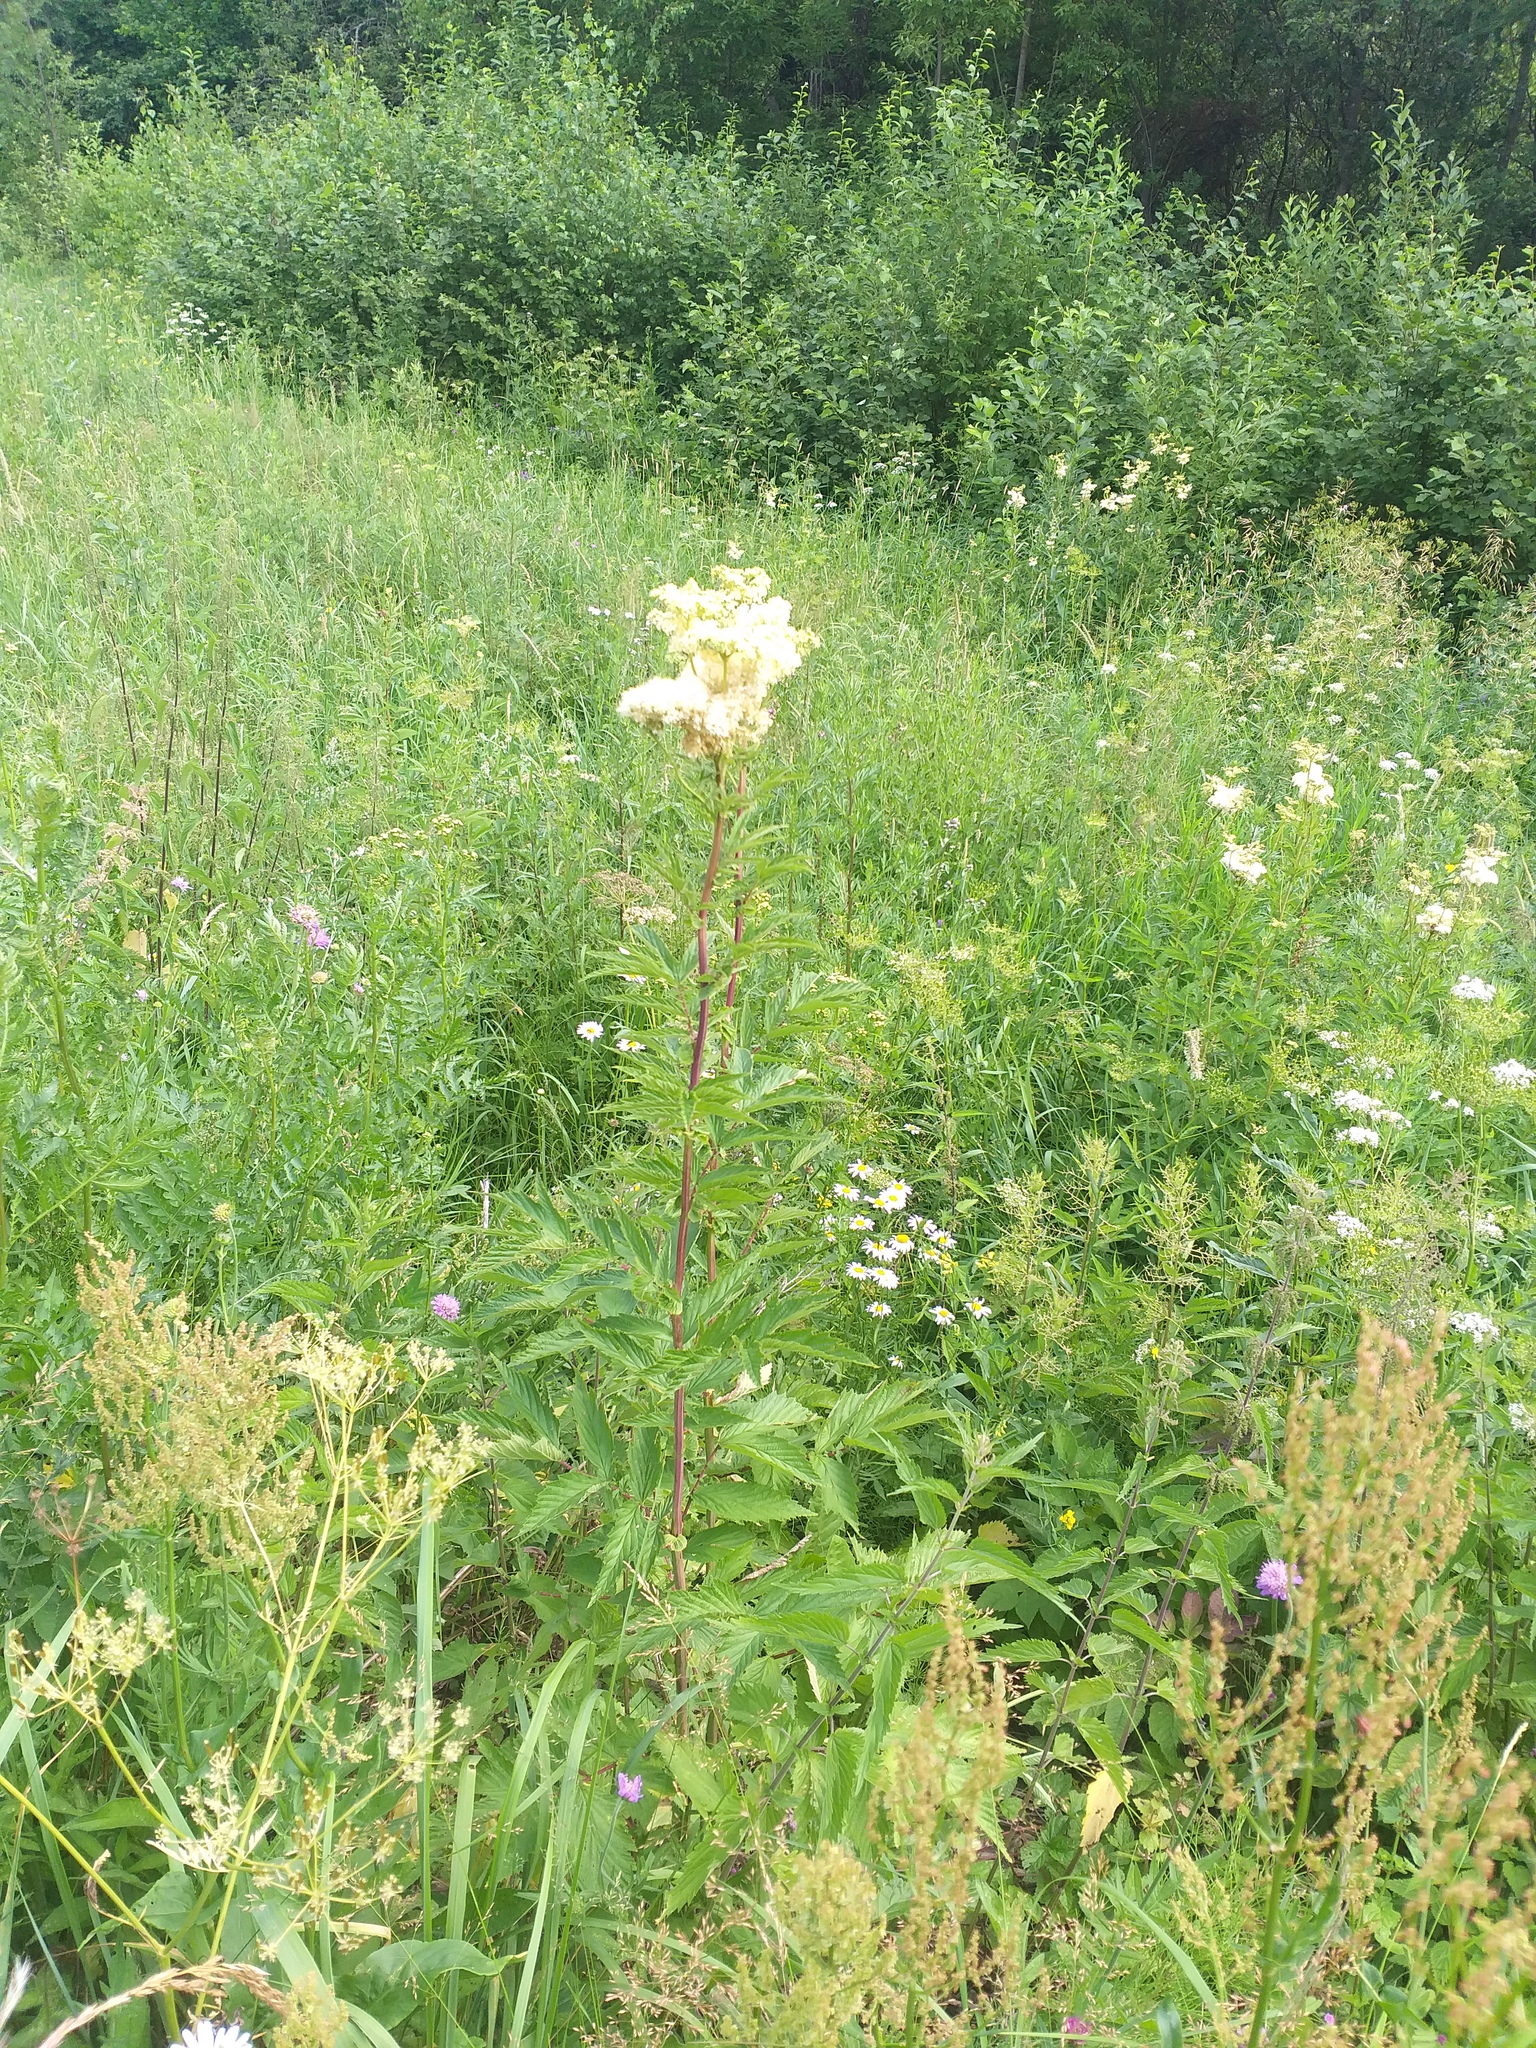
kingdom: Plantae
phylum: Tracheophyta
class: Magnoliopsida
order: Rosales
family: Rosaceae
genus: Filipendula
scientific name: Filipendula ulmaria
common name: Meadowsweet
